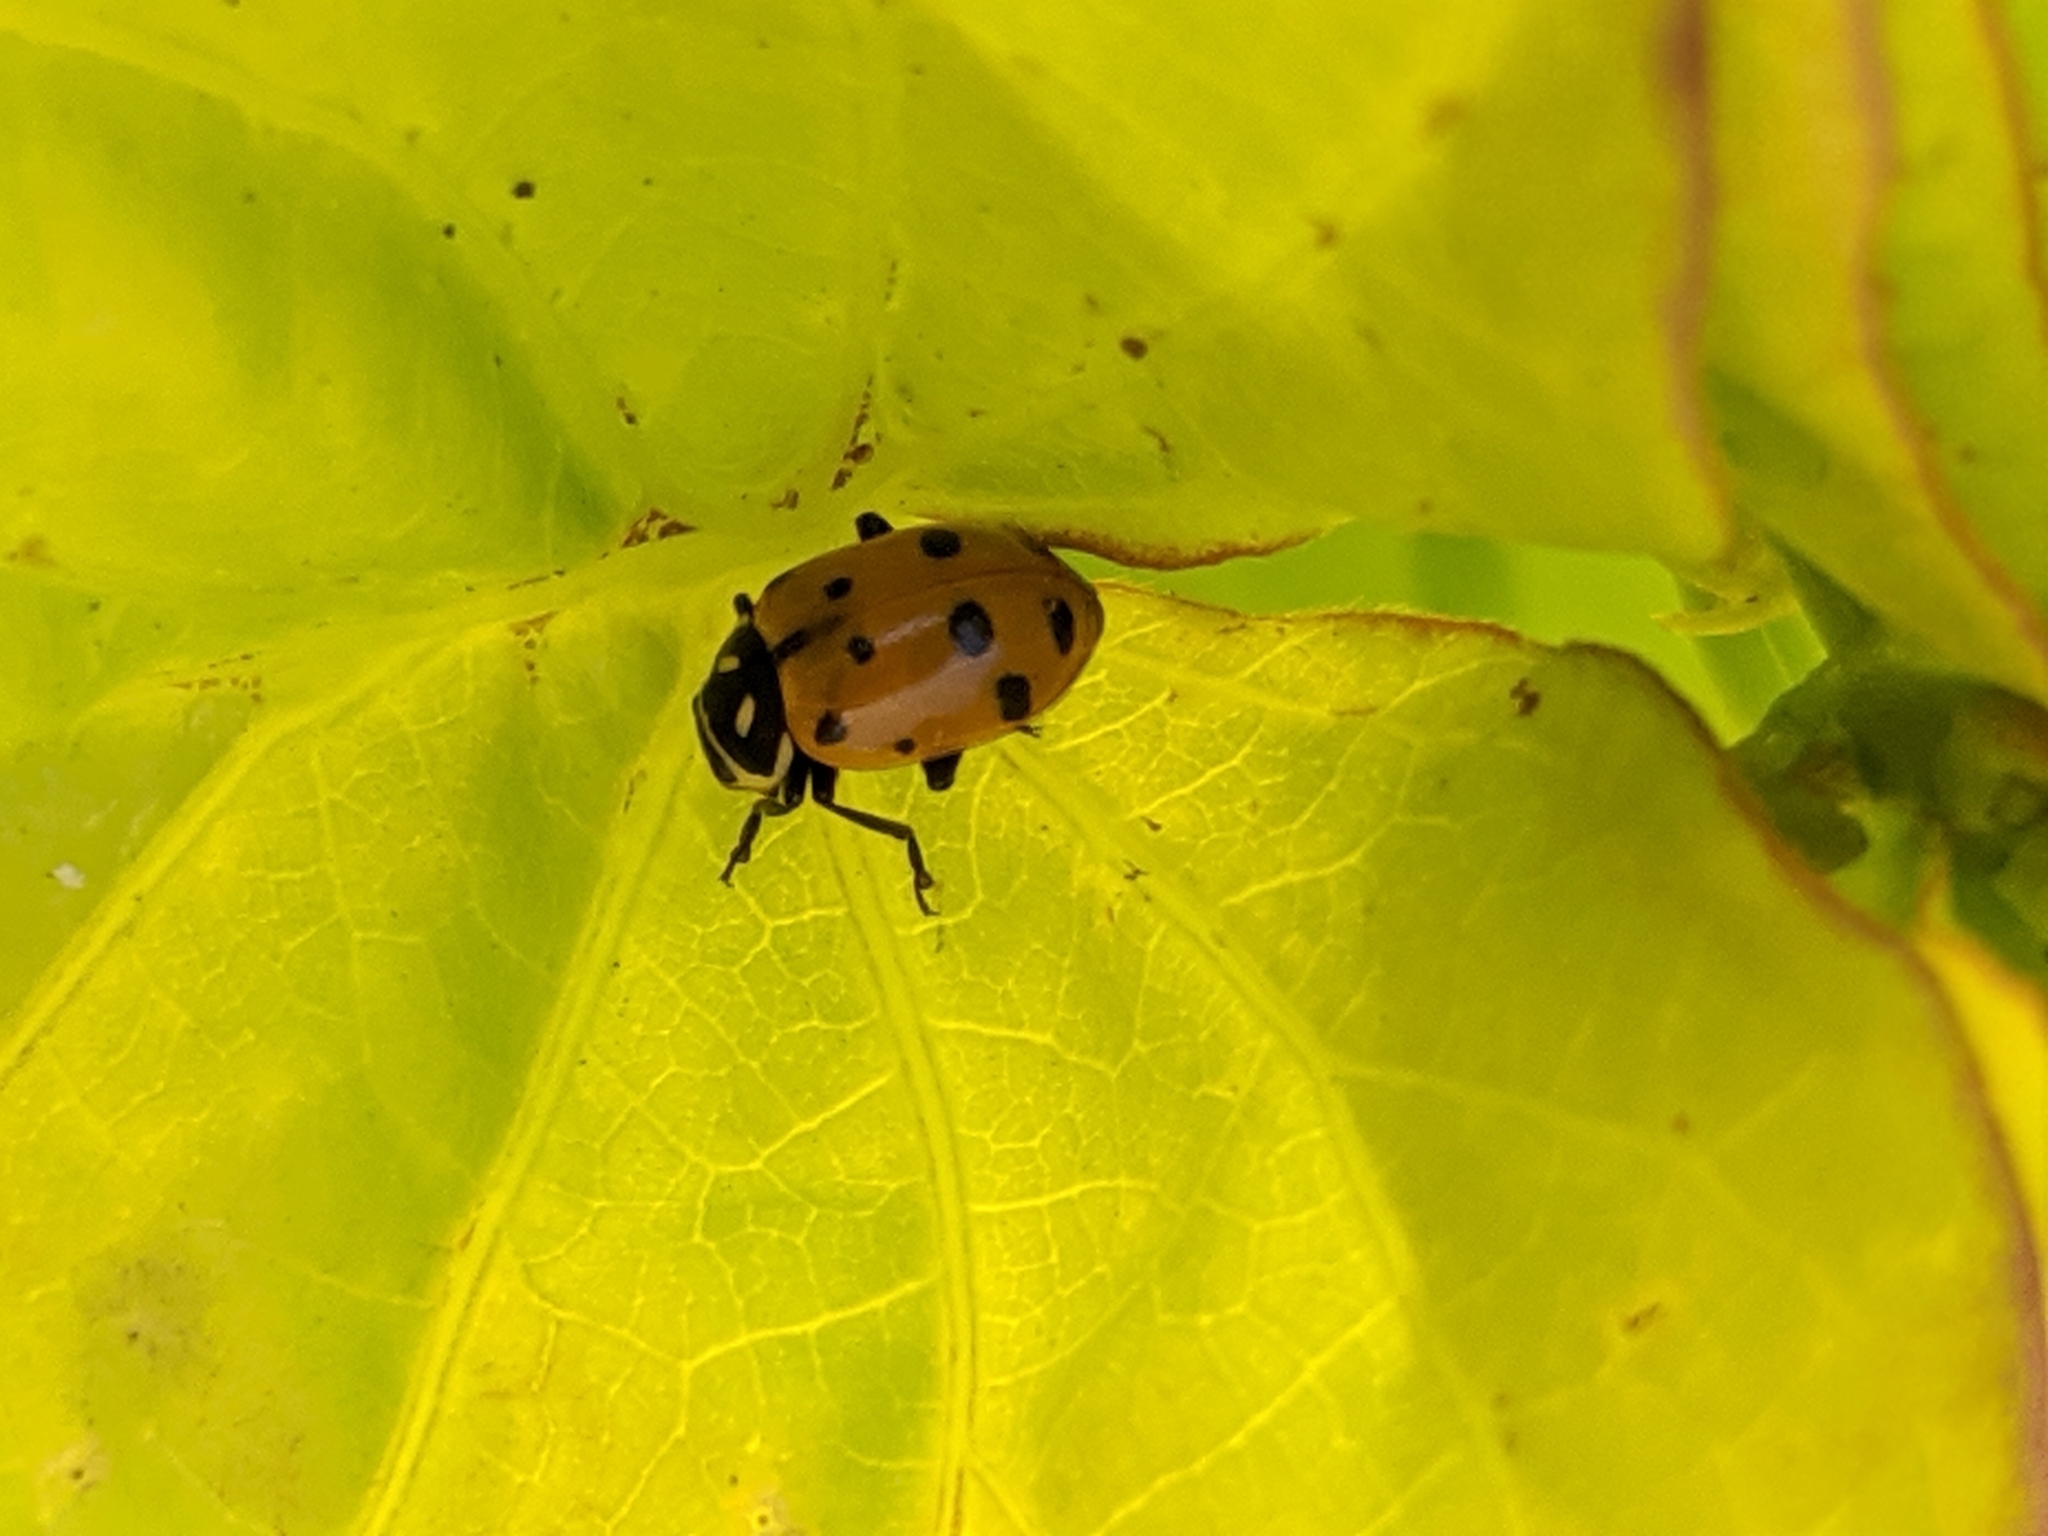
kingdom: Animalia
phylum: Arthropoda
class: Insecta
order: Coleoptera
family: Coccinellidae
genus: Hippodamia
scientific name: Hippodamia convergens
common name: Convergent lady beetle
